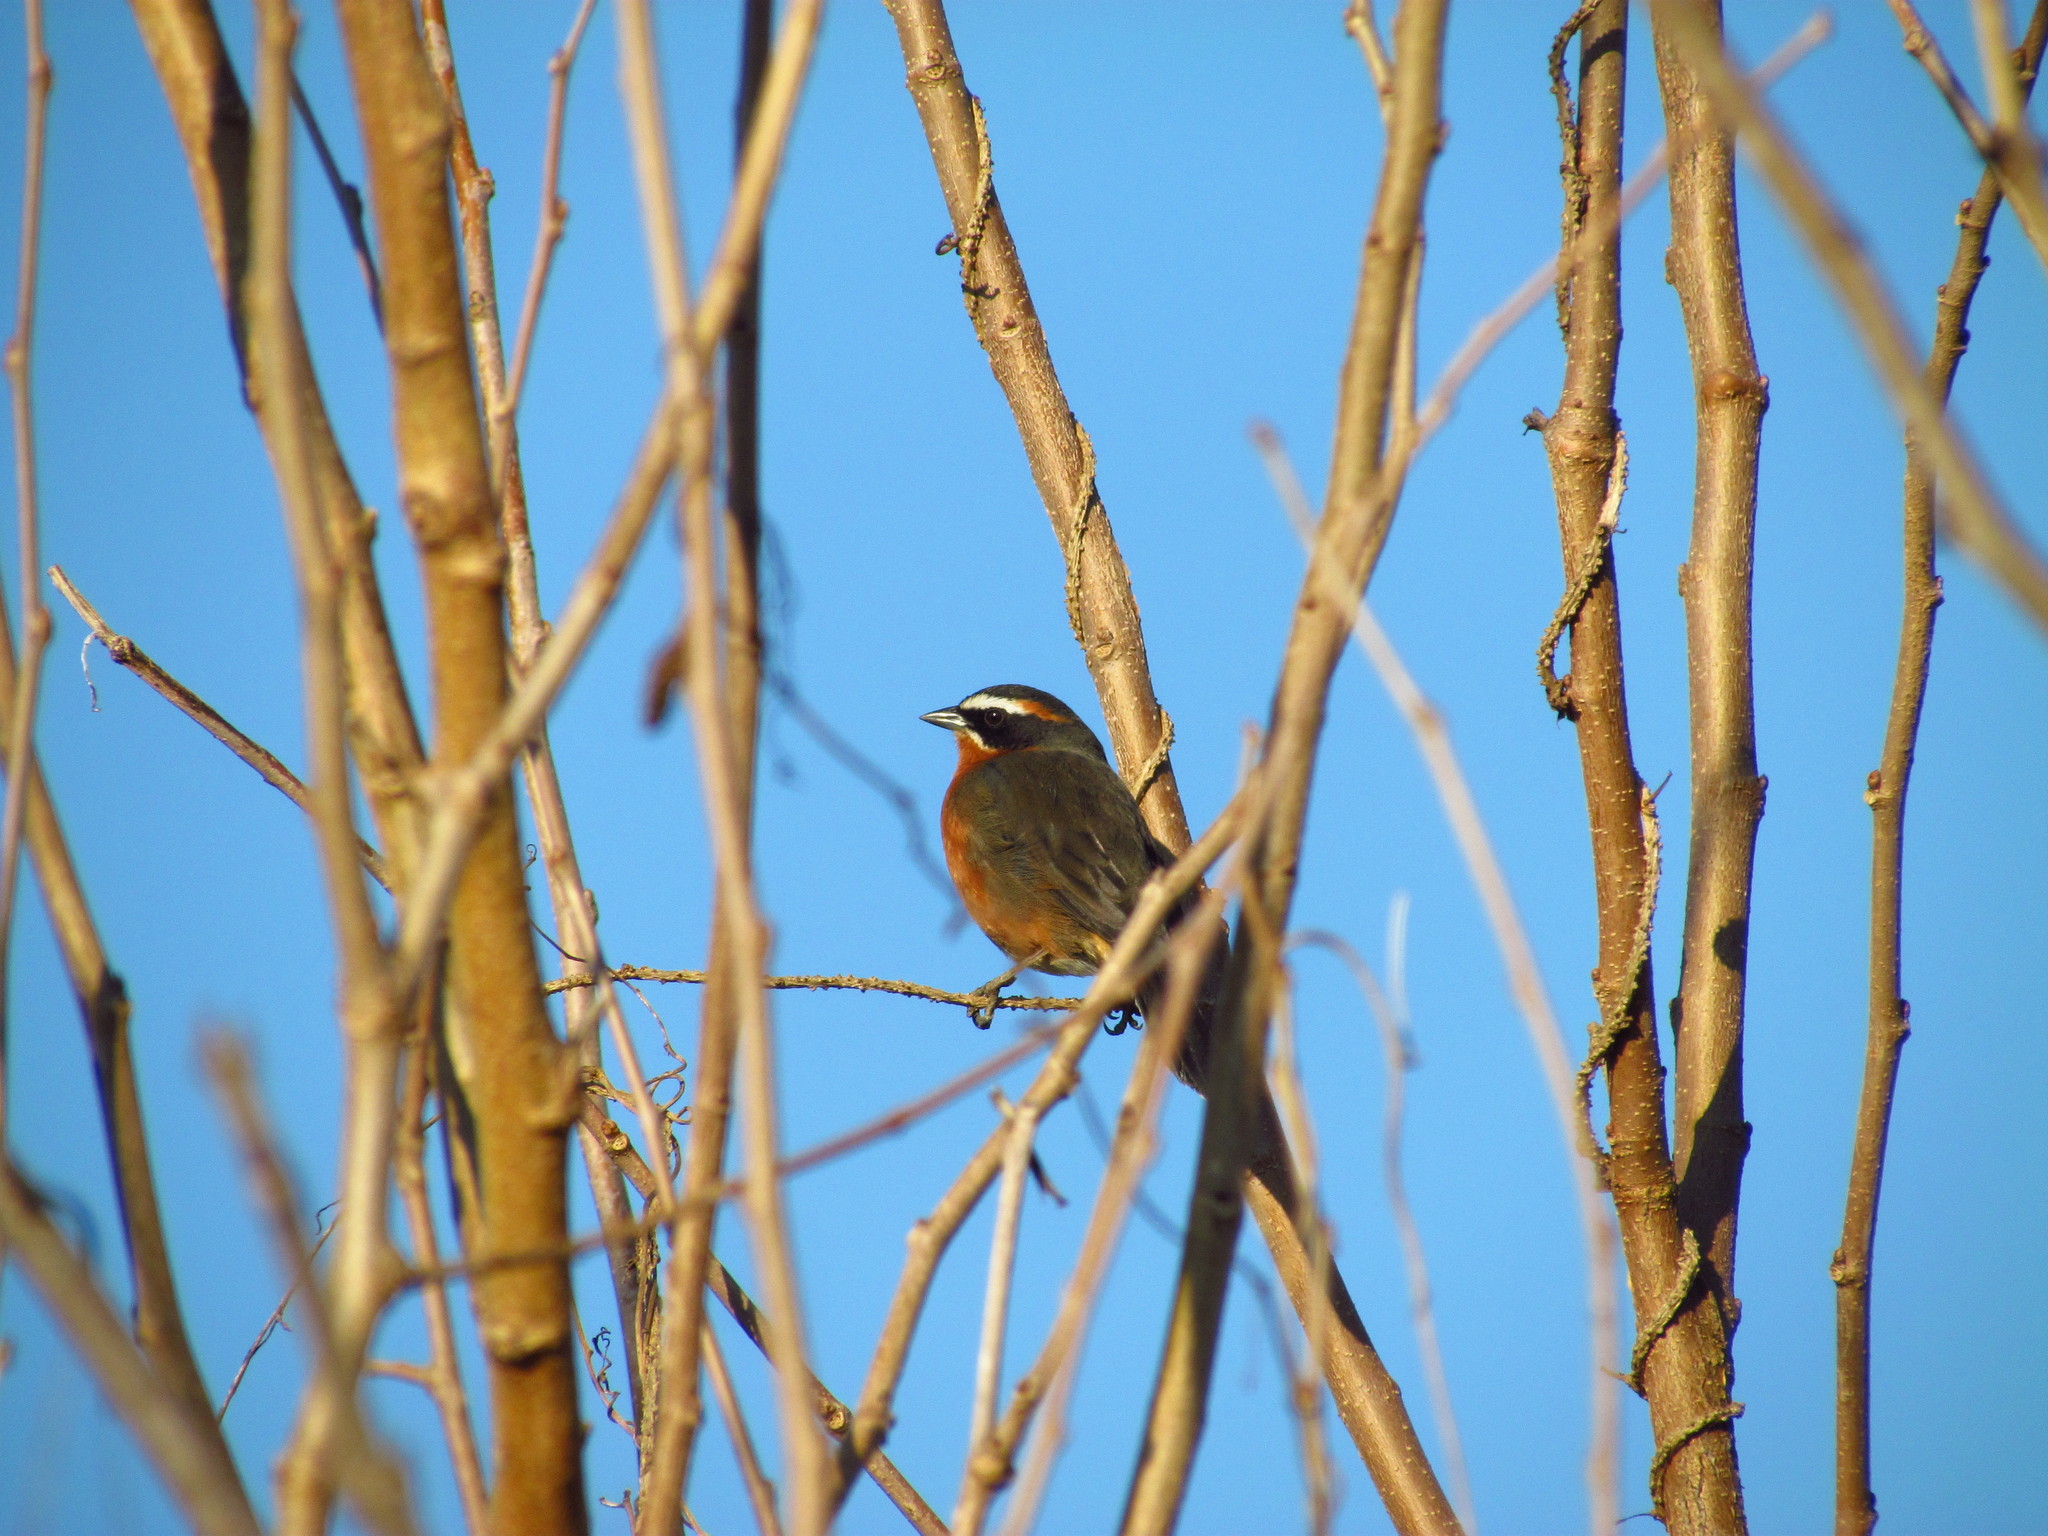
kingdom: Animalia
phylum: Chordata
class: Aves
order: Passeriformes
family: Thraupidae
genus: Poospiza
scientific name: Poospiza nigrorufa
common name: Black-and-rufous warbling finch
